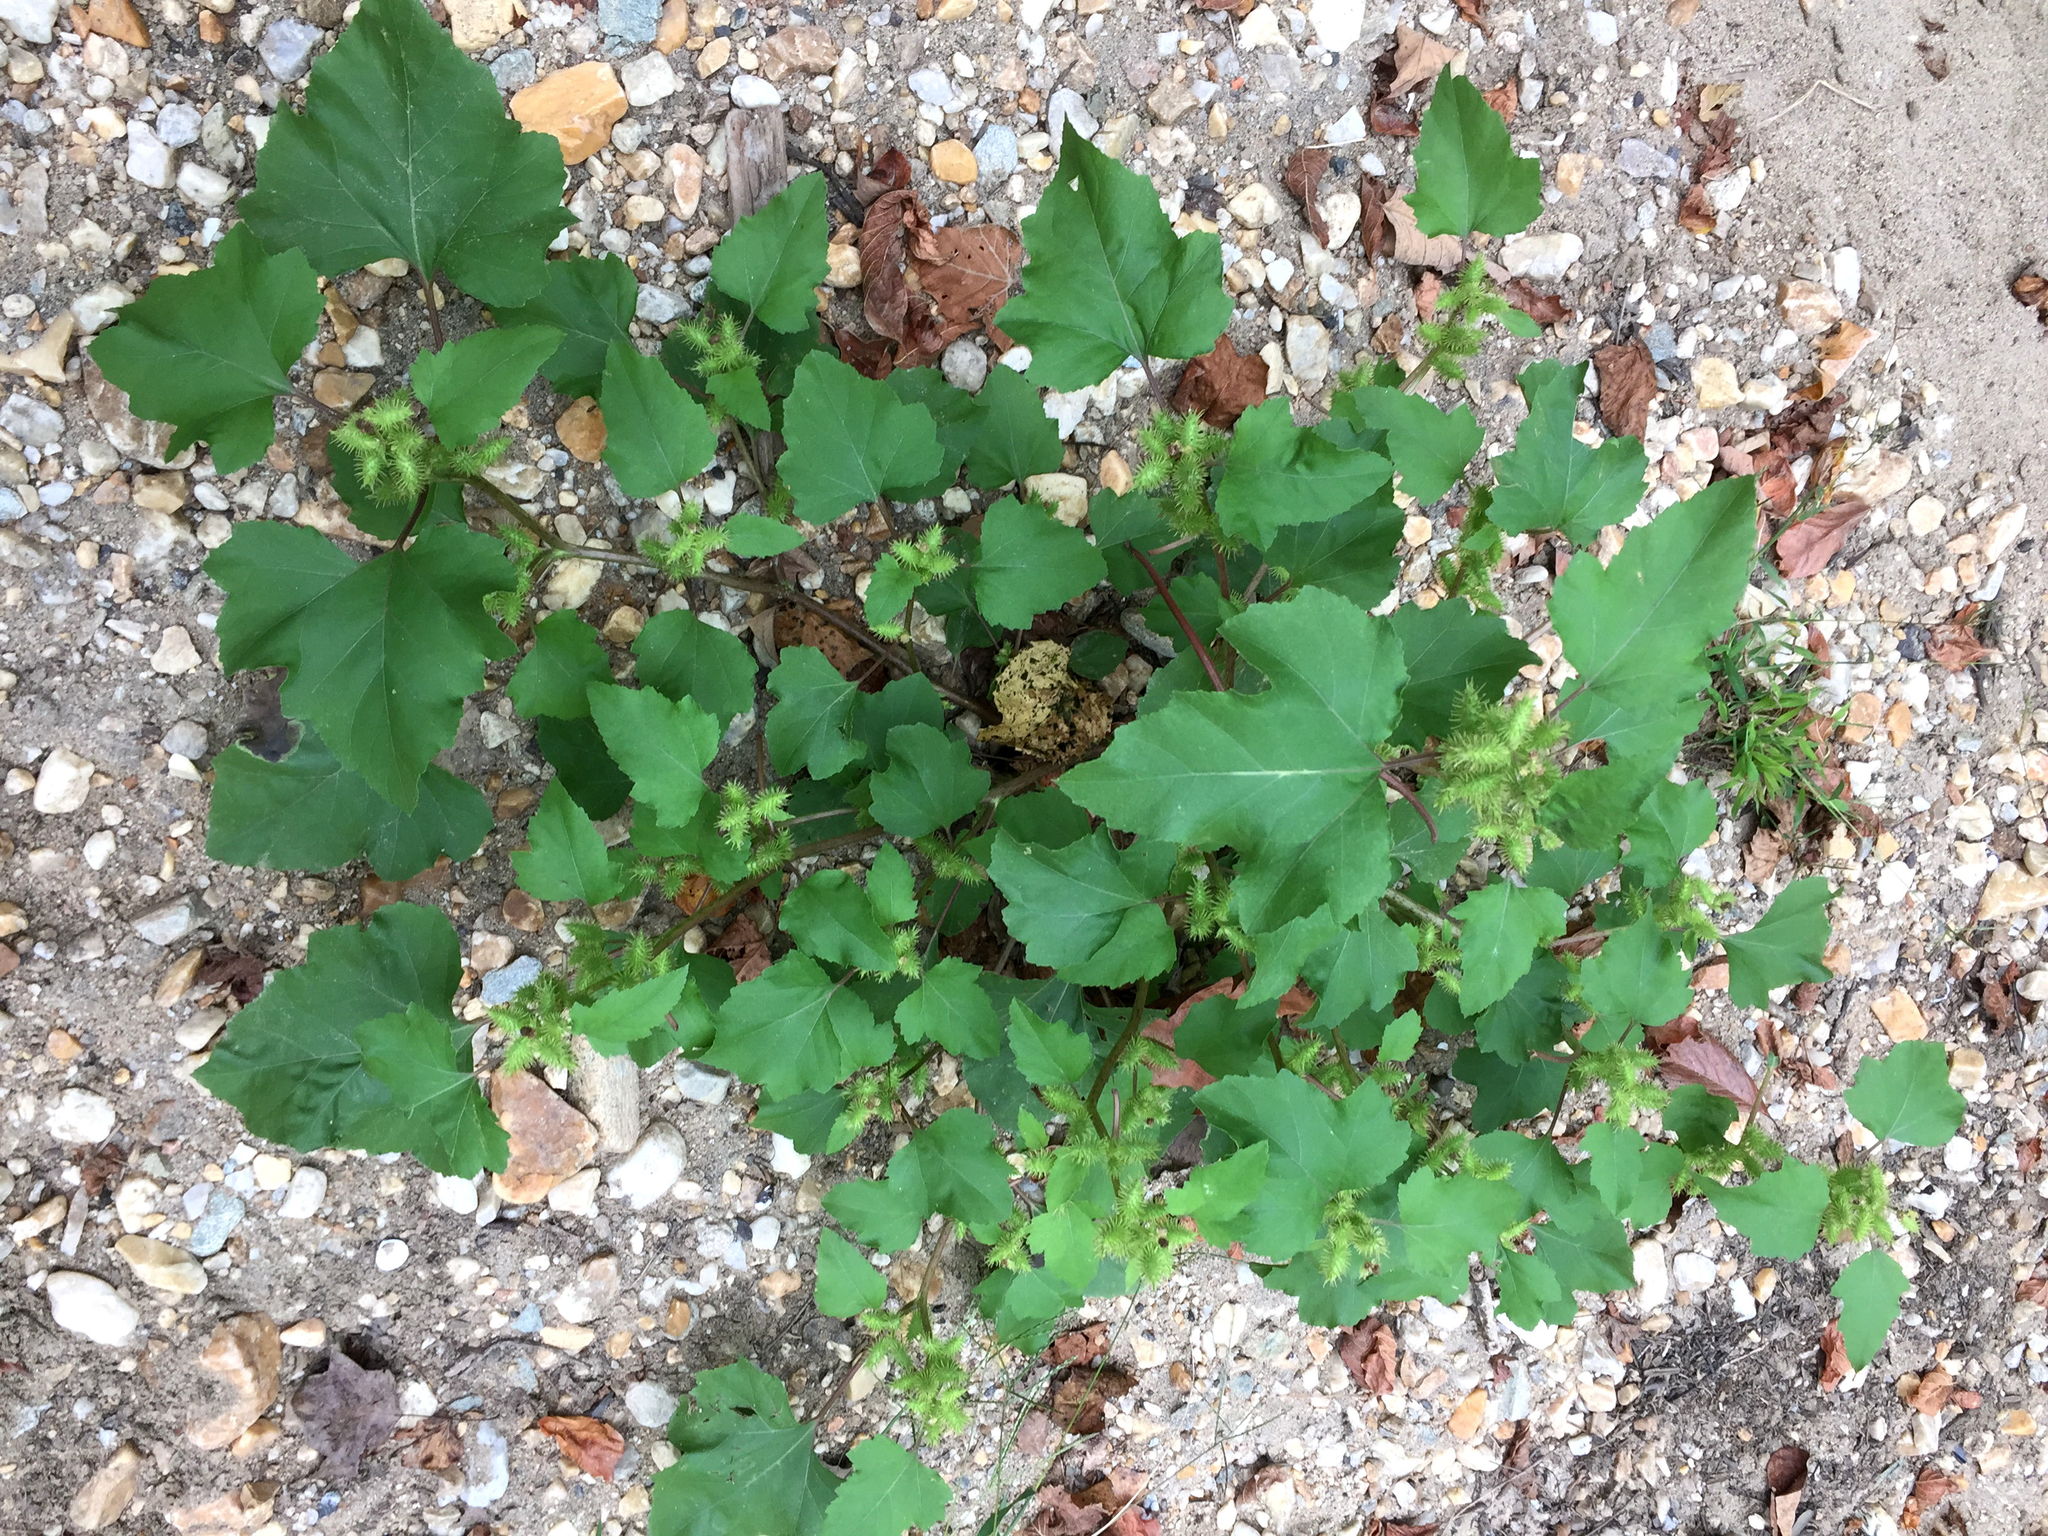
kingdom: Plantae
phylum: Tracheophyta
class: Magnoliopsida
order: Asterales
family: Asteraceae
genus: Xanthium
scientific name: Xanthium strumarium
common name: Rough cocklebur
